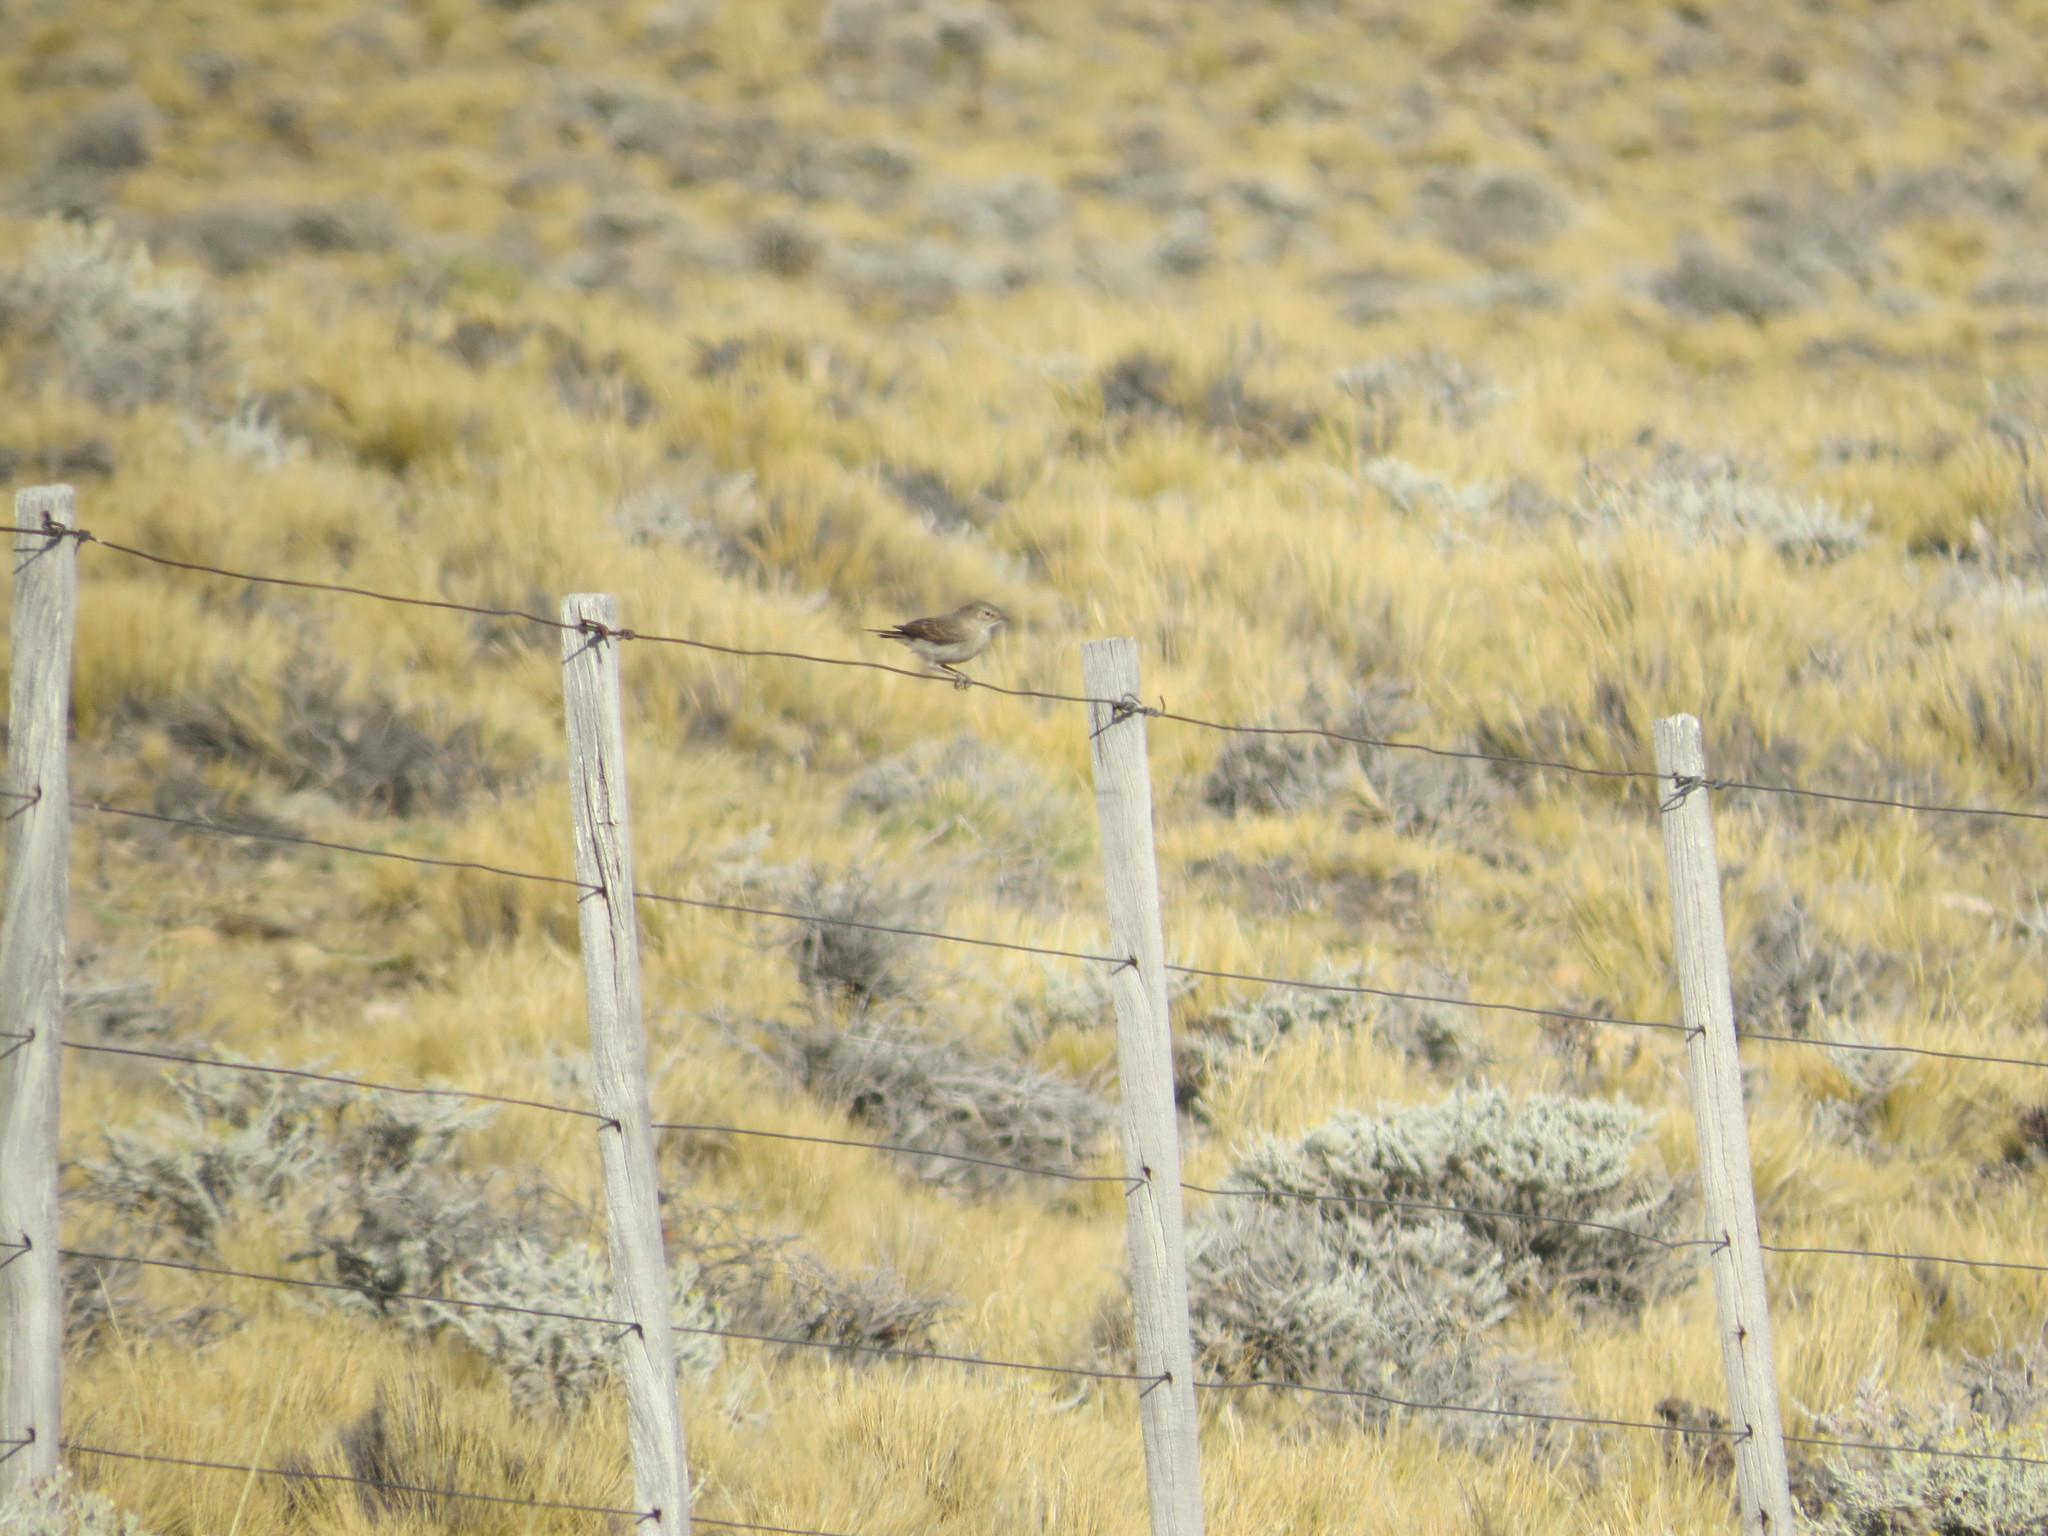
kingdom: Animalia
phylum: Chordata
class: Aves
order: Passeriformes
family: Tyrannidae
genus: Muscisaxicola
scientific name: Muscisaxicola maculirostris
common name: Spot-billed ground tyrant
